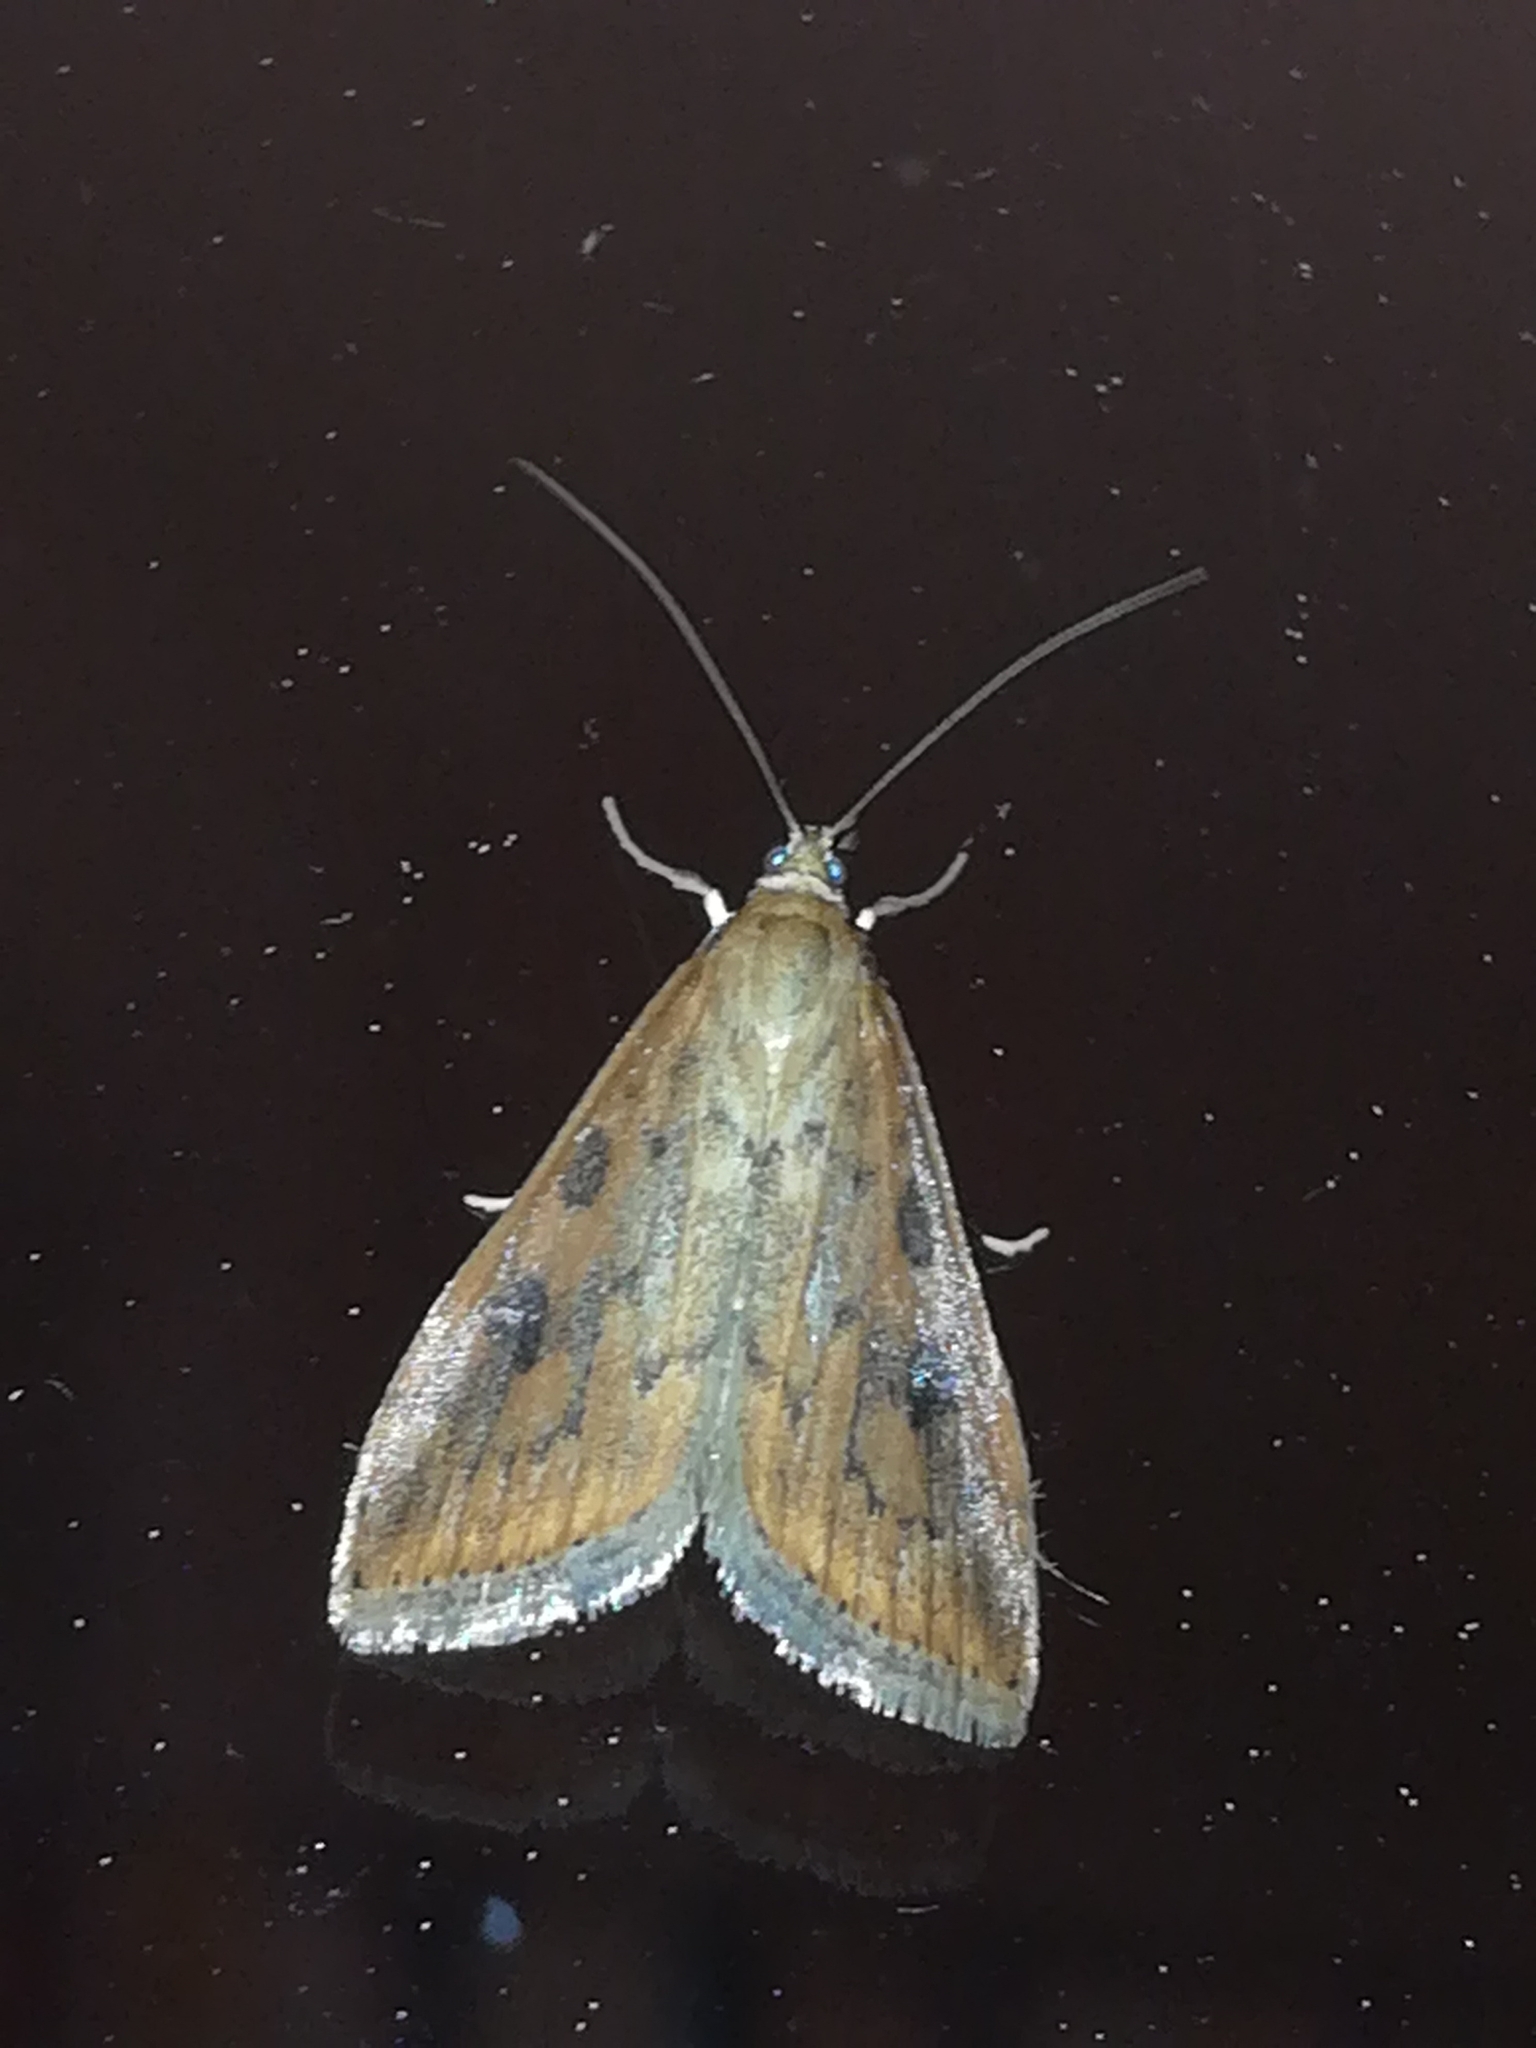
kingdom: Animalia
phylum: Arthropoda
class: Insecta
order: Lepidoptera
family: Crambidae
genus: Udea
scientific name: Udea ferrugalis
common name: Rusty dot
